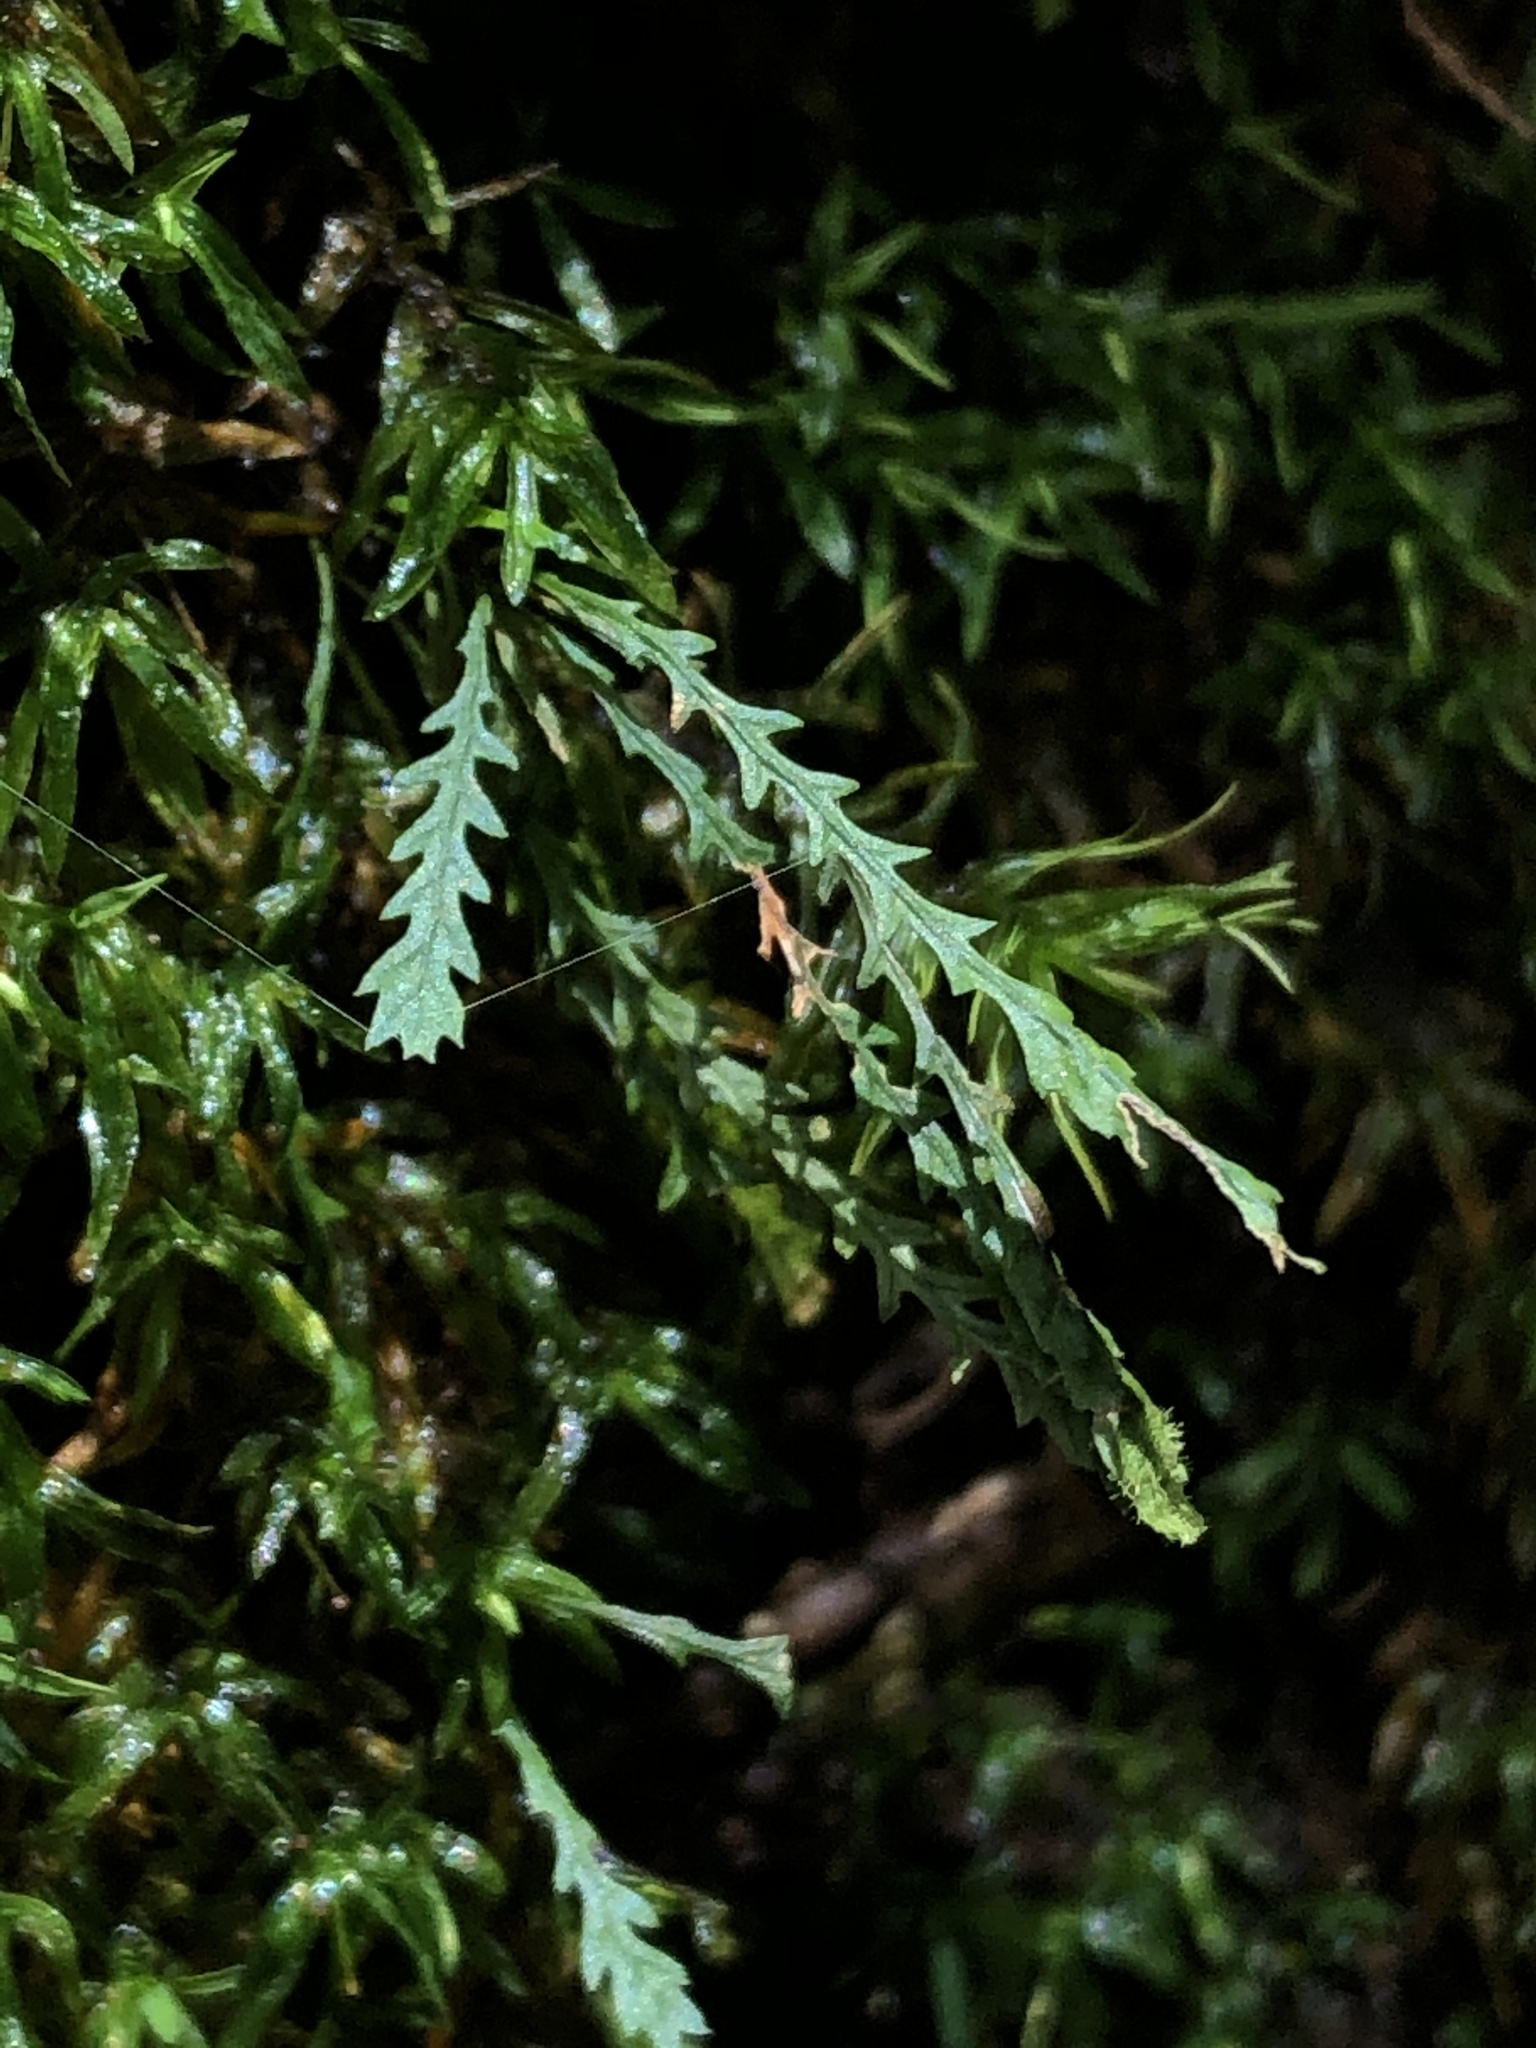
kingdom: Plantae
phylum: Tracheophyta
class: Polypodiopsida
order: Polypodiales
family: Polypodiaceae
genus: Cochlidium
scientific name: Cochlidium serrulatum
